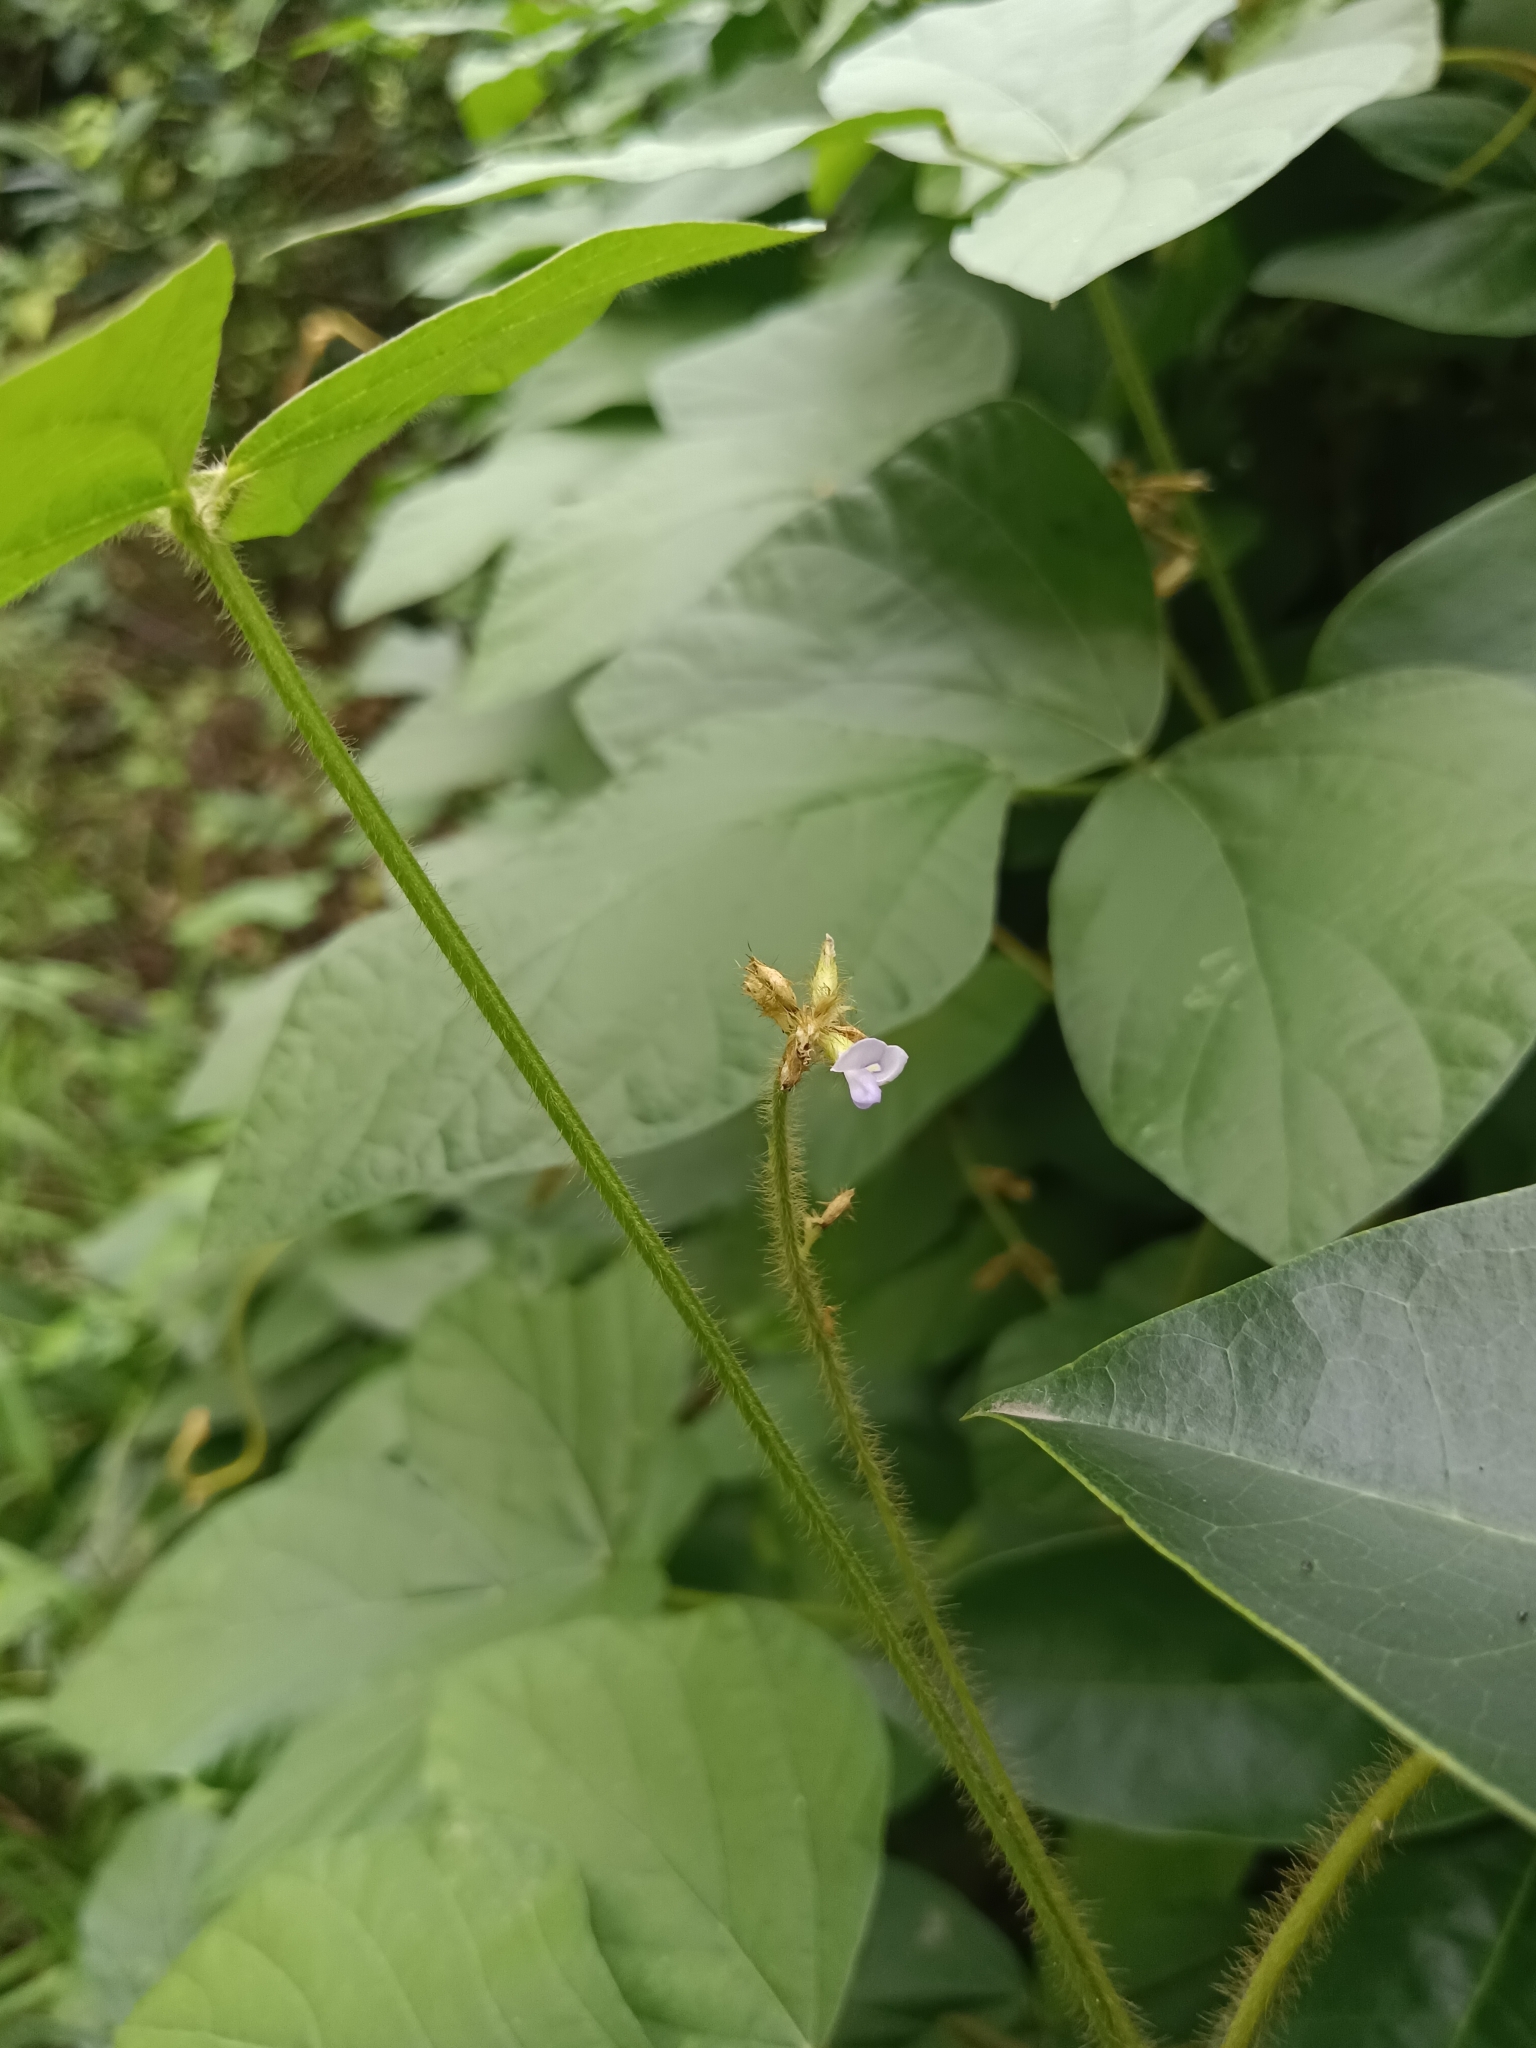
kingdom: Plantae
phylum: Tracheophyta
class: Magnoliopsida
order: Fabales
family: Fabaceae
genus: Calopogonium
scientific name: Calopogonium mucunoides
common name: Calopo
